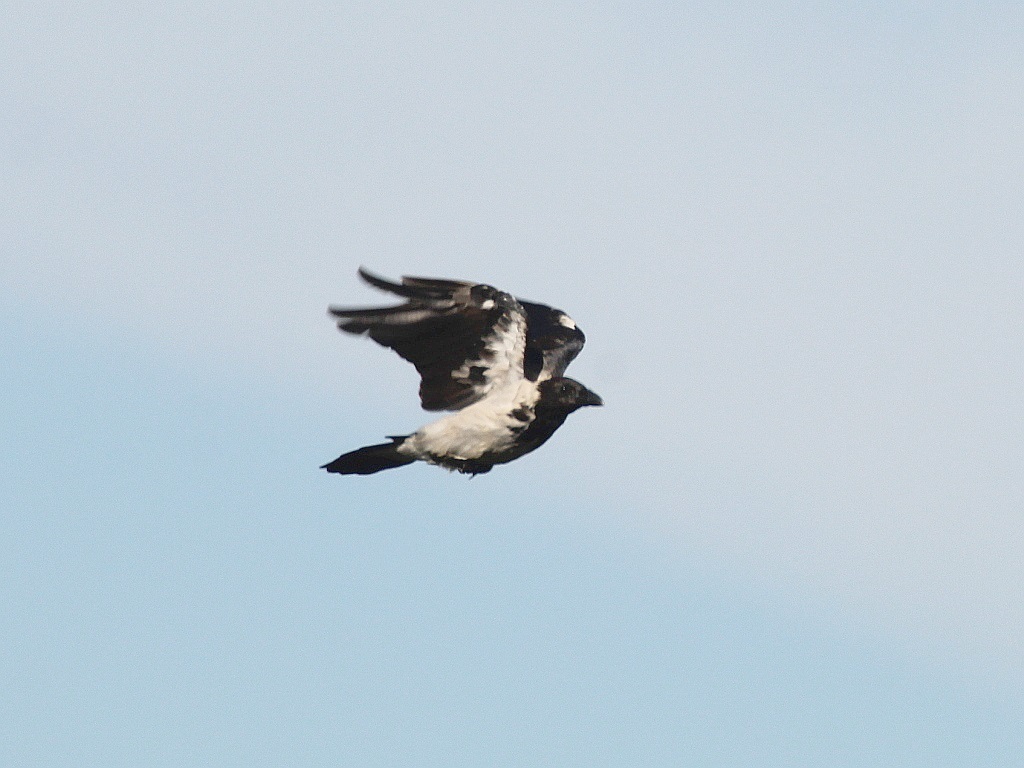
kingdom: Animalia
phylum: Chordata
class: Aves
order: Passeriformes
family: Corvidae
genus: Corvus
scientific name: Corvus cornix
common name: Hooded crow
